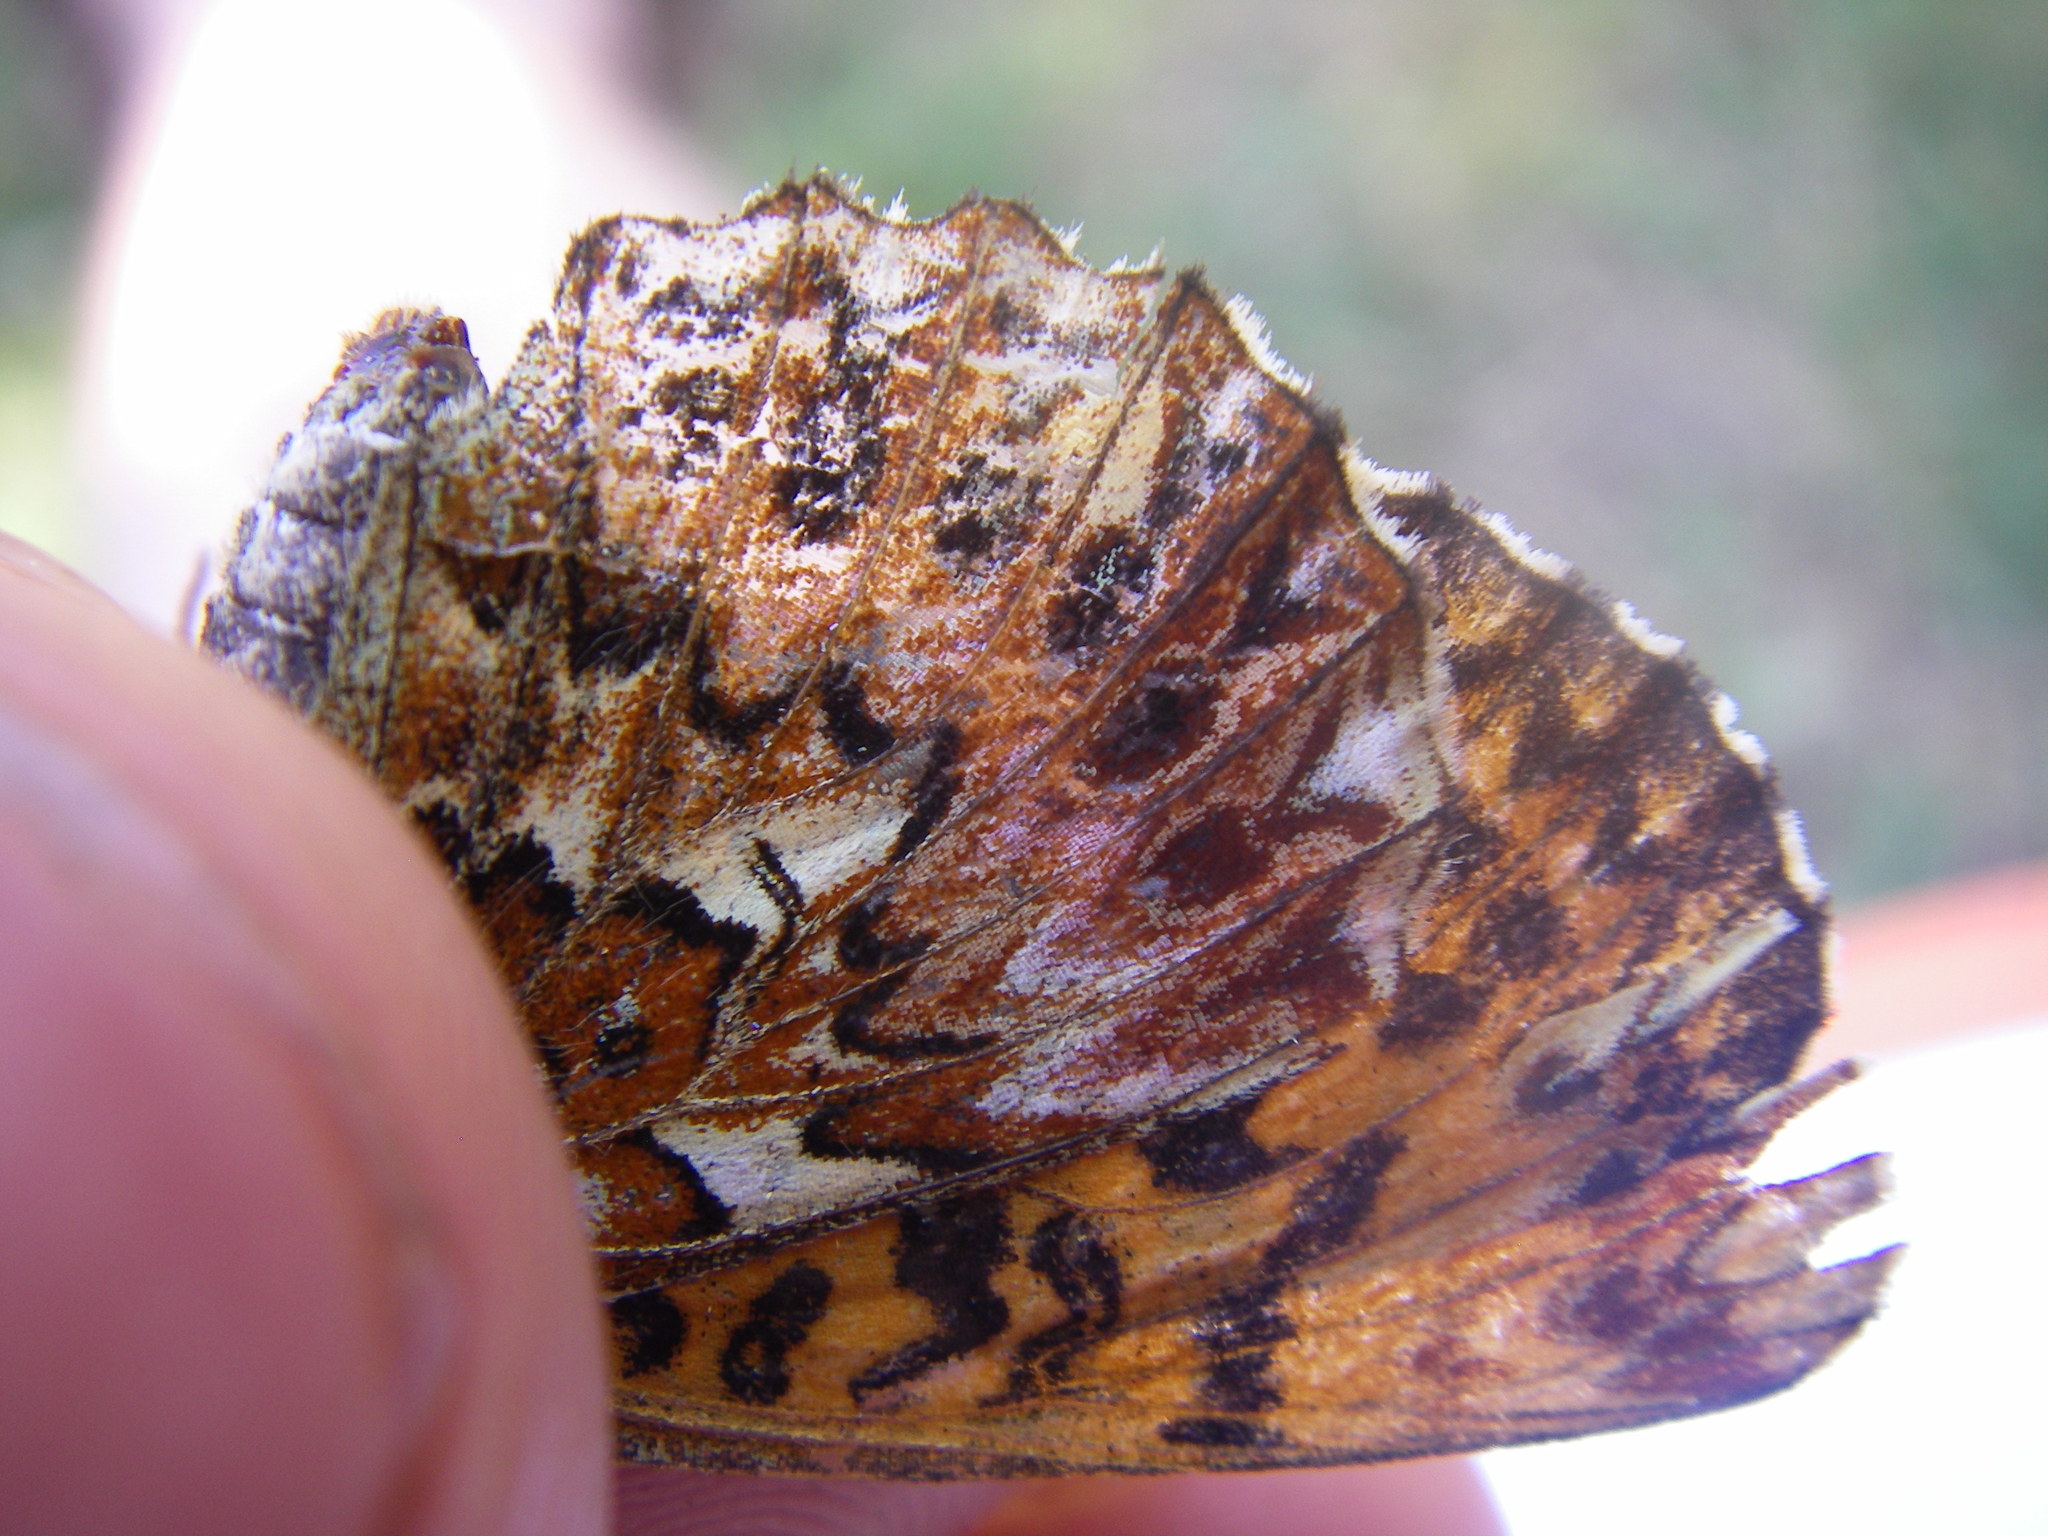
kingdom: Animalia
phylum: Arthropoda
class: Insecta
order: Lepidoptera
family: Nymphalidae
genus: Boloria
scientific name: Boloria titania
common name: Titania's fritillary
